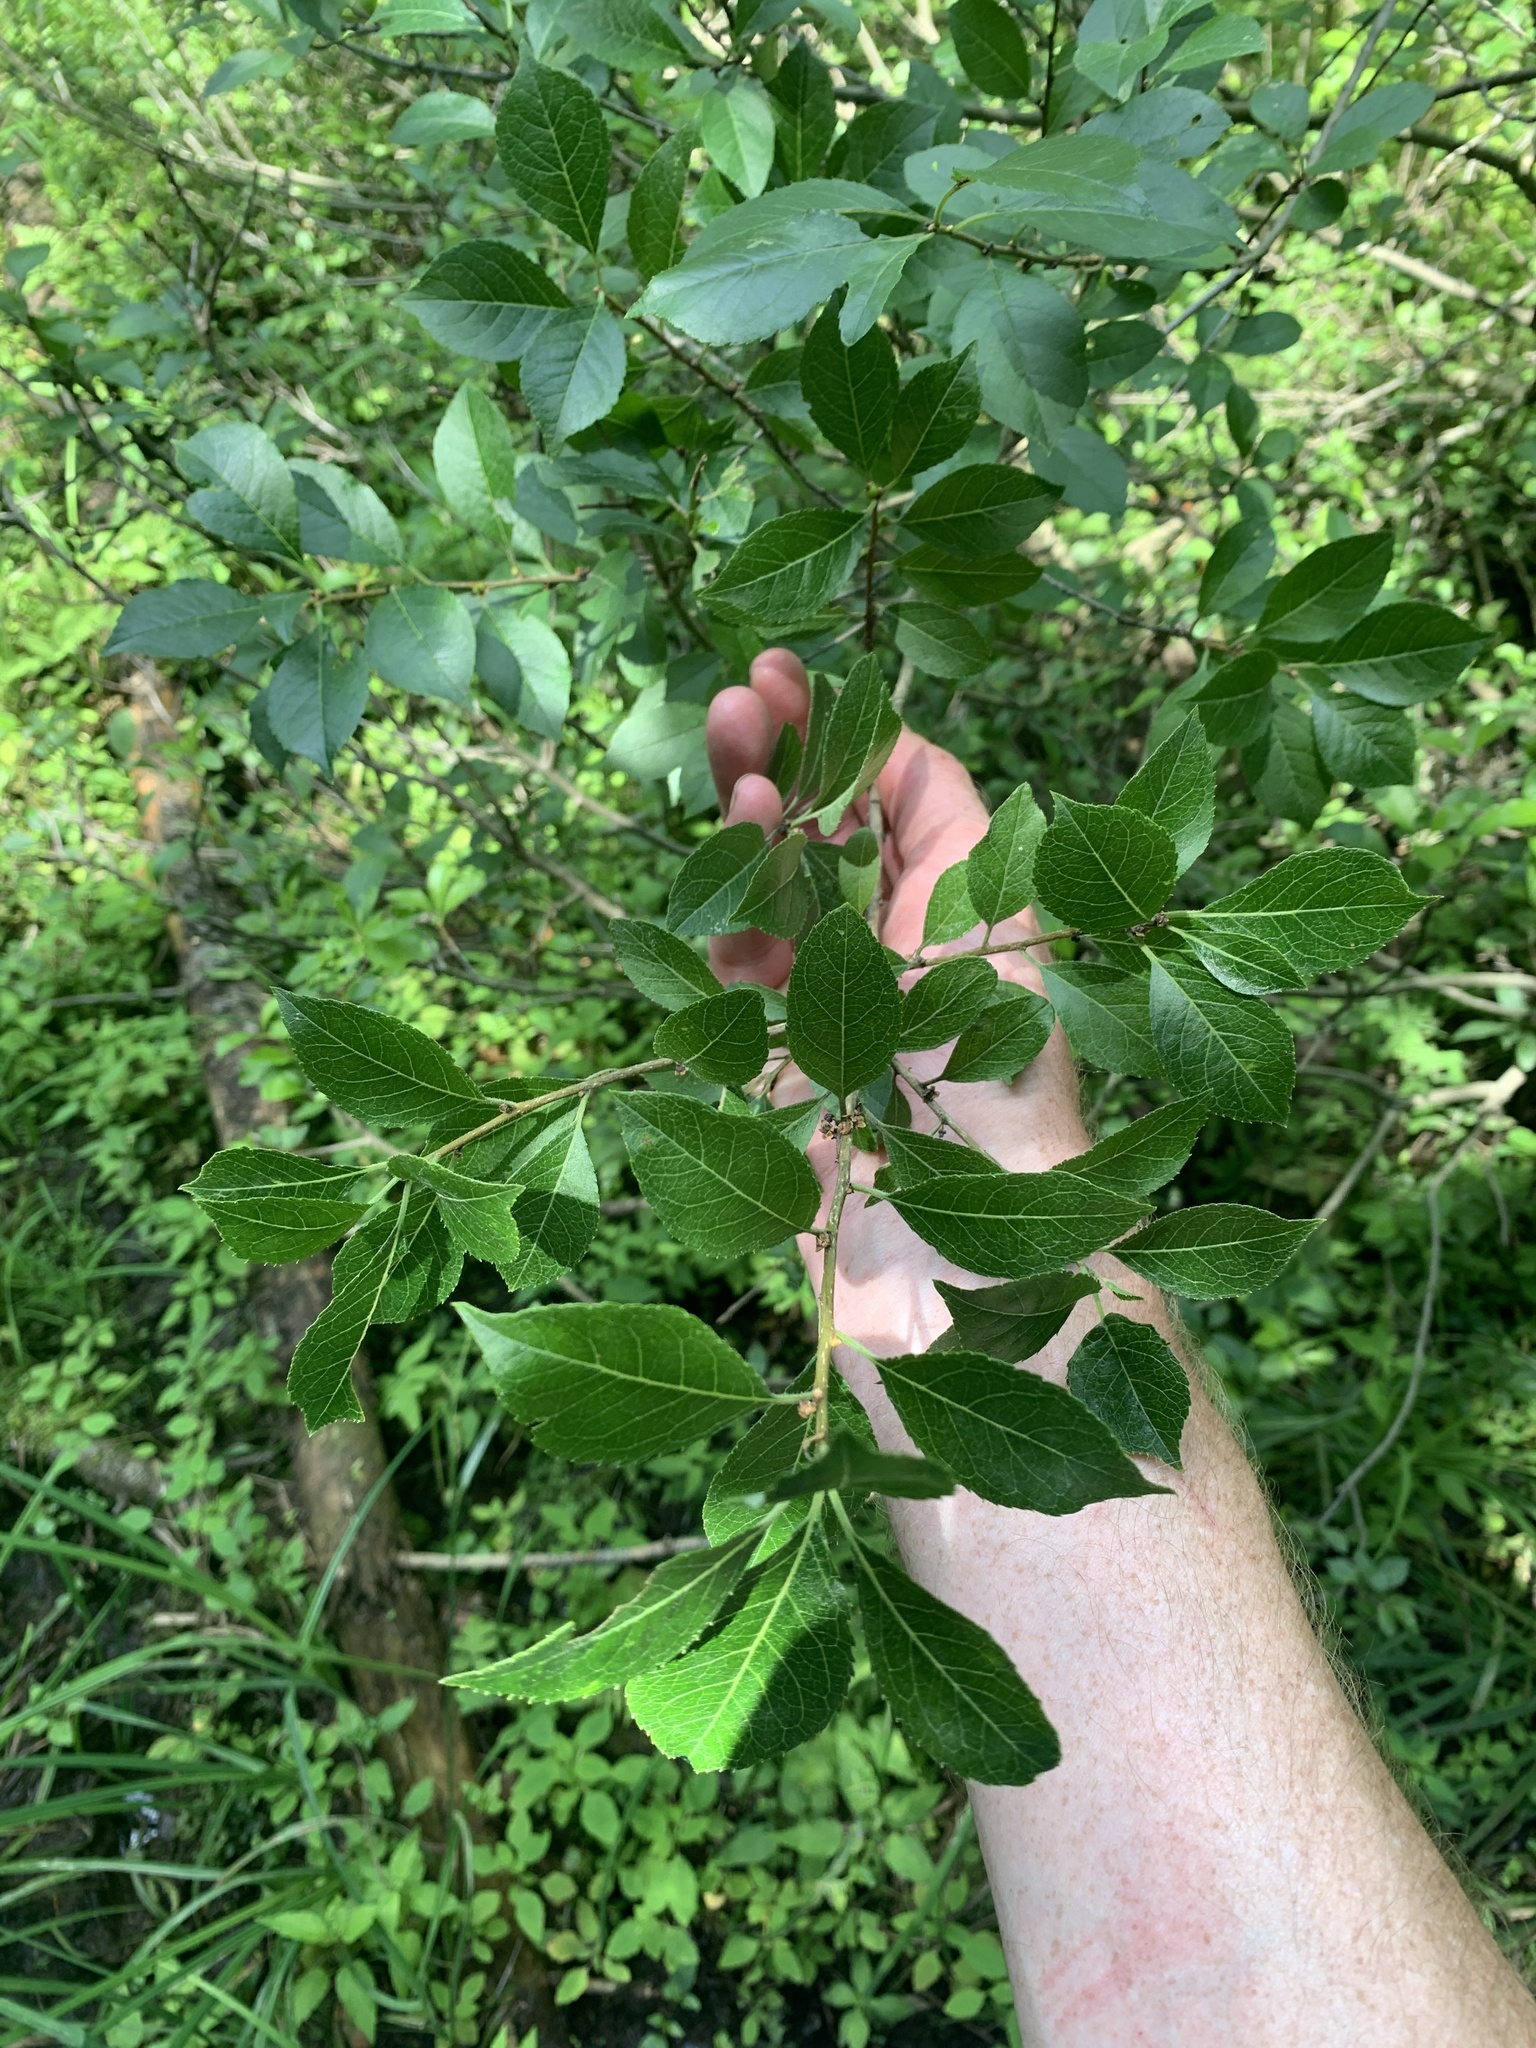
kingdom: Plantae
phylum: Tracheophyta
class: Magnoliopsida
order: Aquifoliales
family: Aquifoliaceae
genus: Ilex
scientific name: Ilex verticillata
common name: Virginia winterberry
